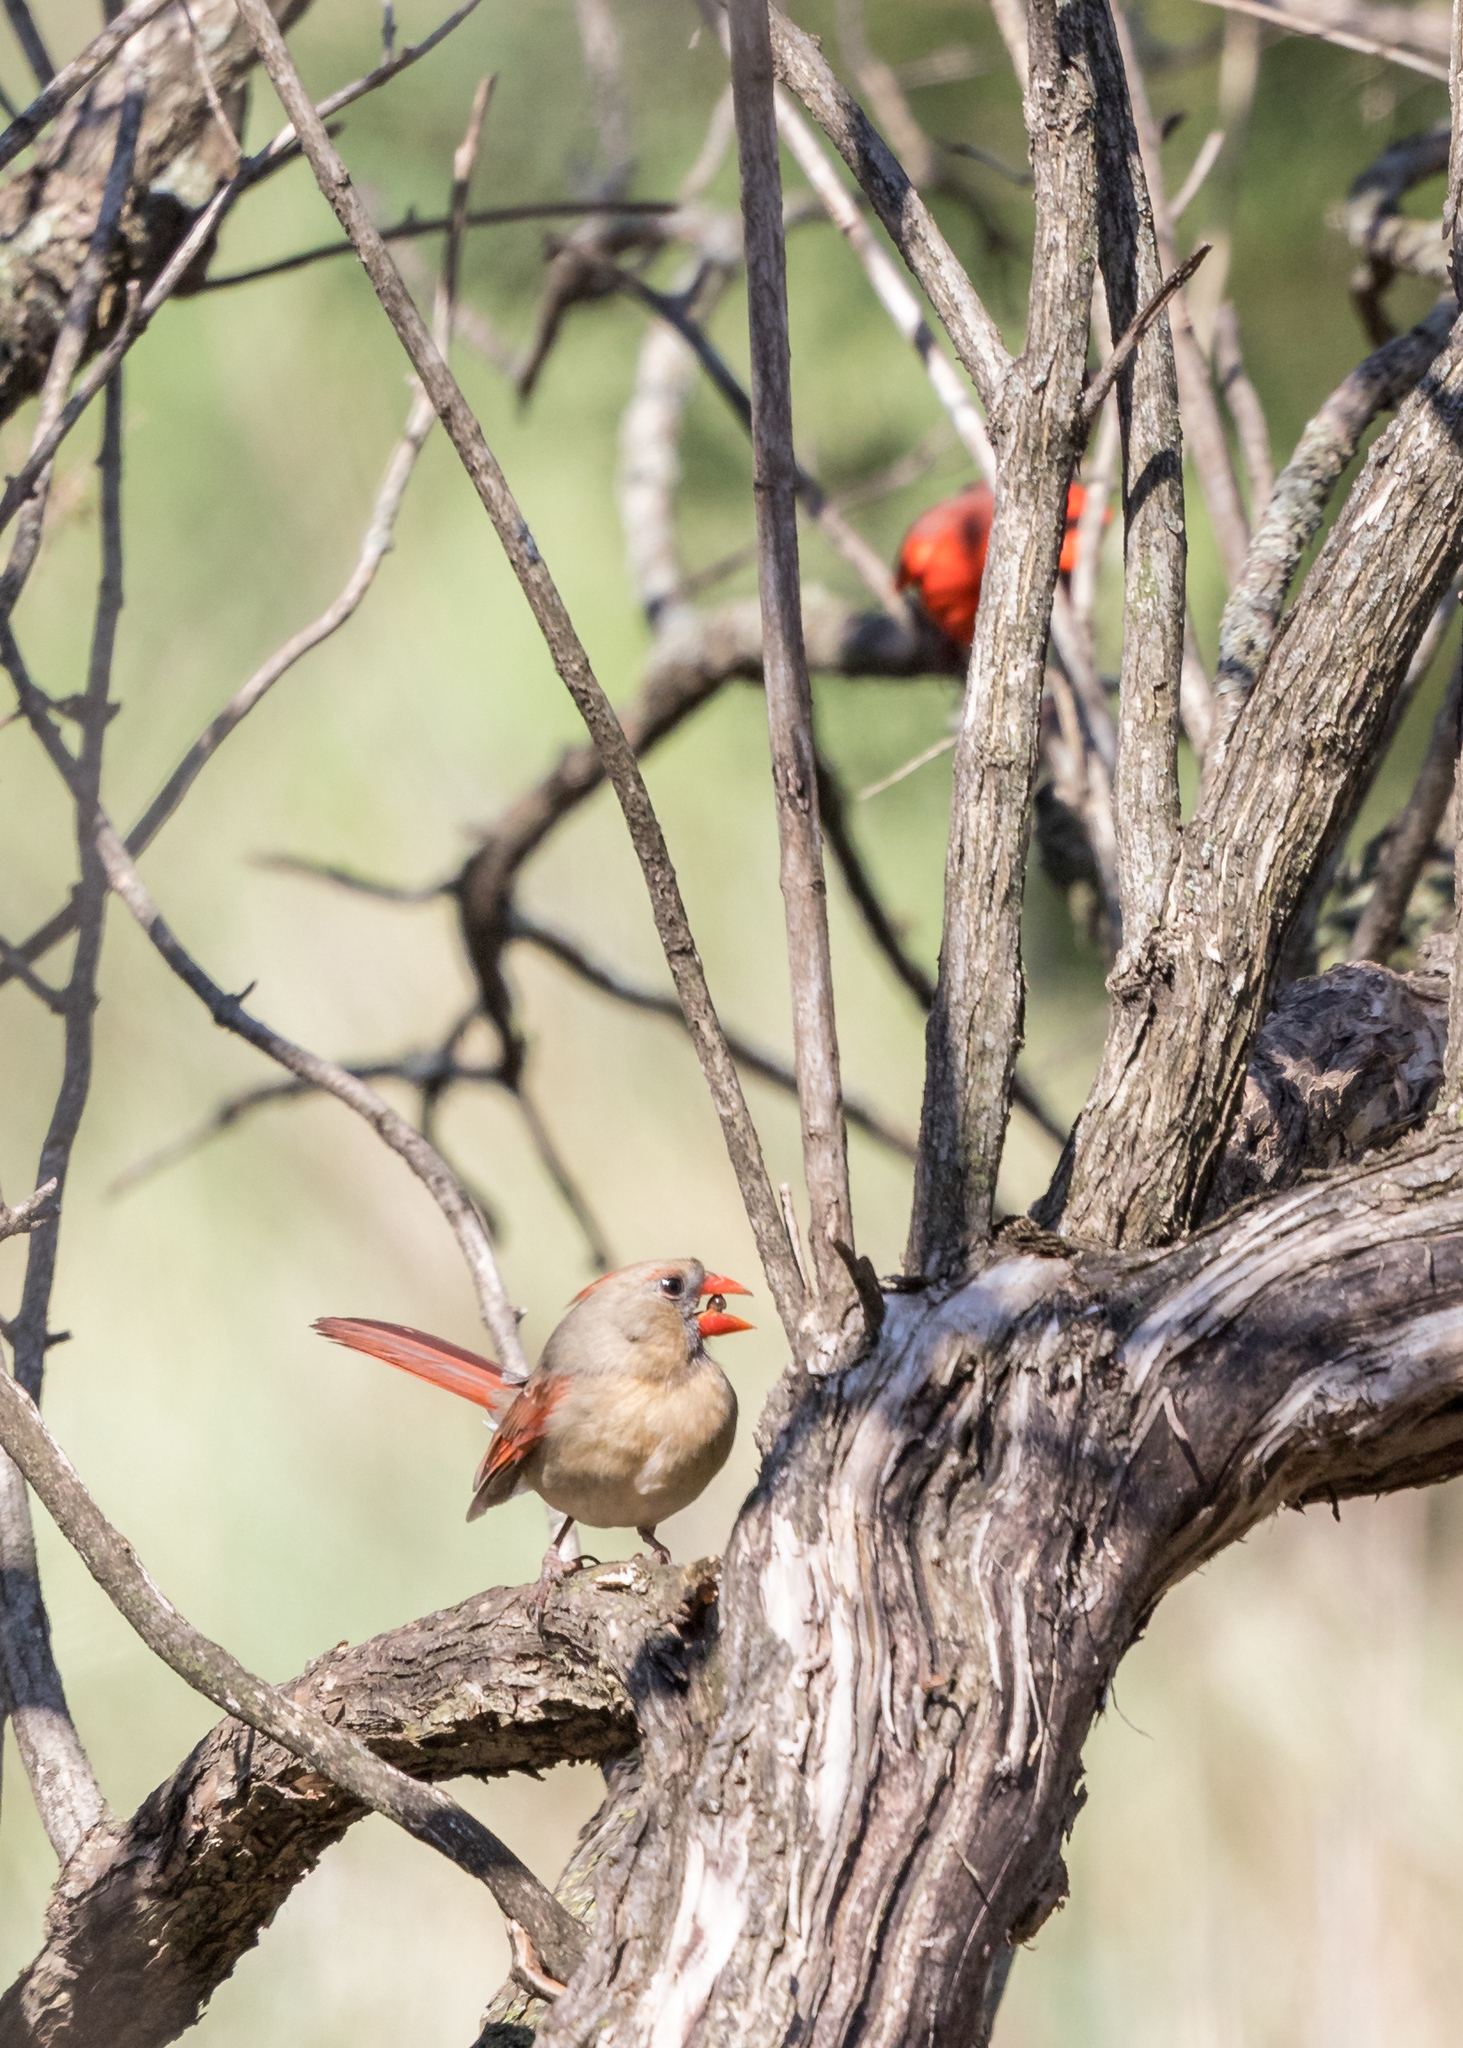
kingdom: Animalia
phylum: Chordata
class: Aves
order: Passeriformes
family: Cardinalidae
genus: Cardinalis
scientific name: Cardinalis cardinalis
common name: Northern cardinal
